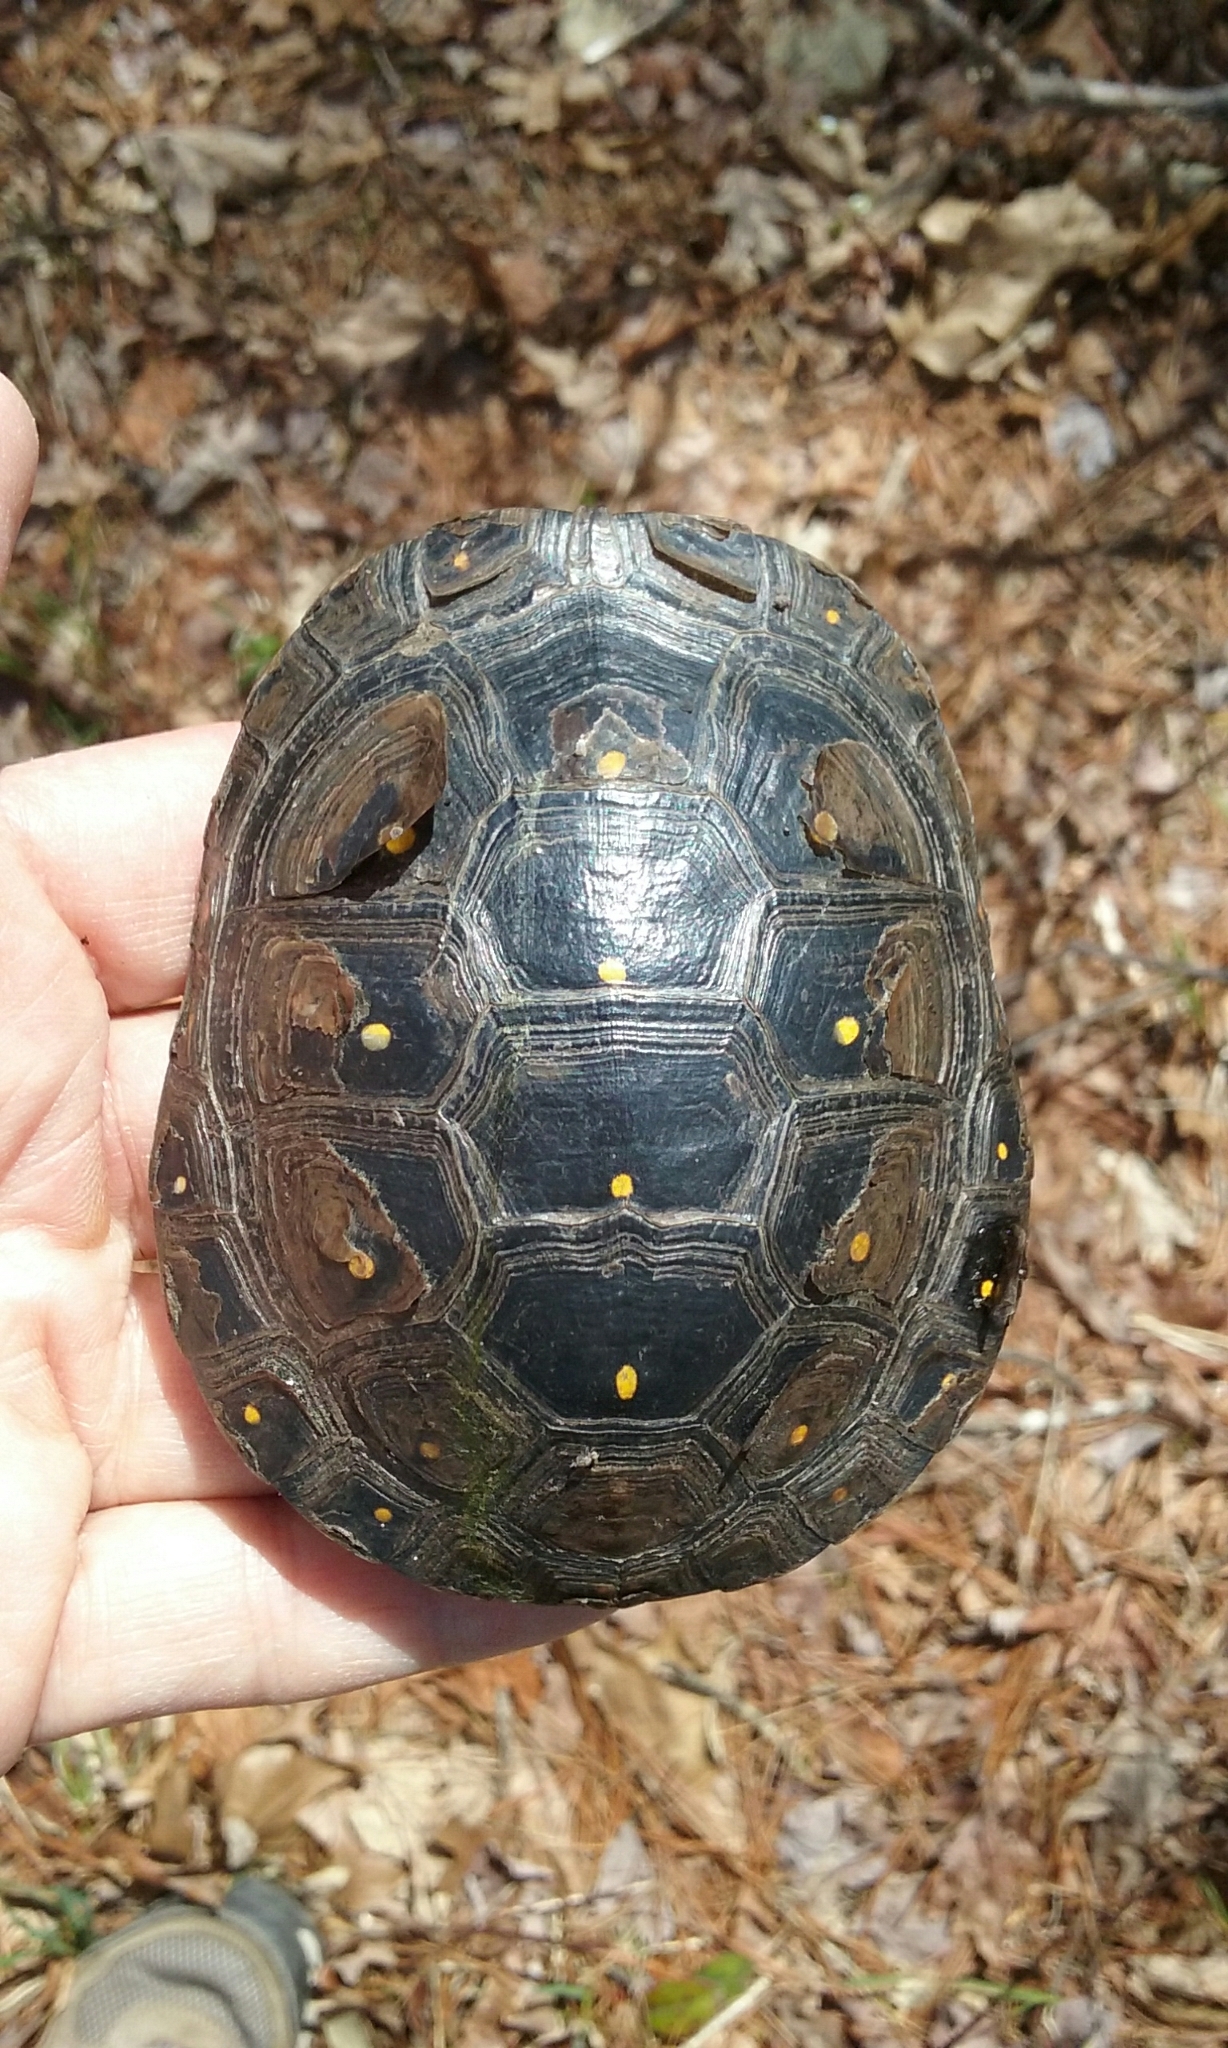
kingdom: Animalia
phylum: Chordata
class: Testudines
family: Emydidae
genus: Clemmys
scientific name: Clemmys guttata
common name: Spotted turtle
